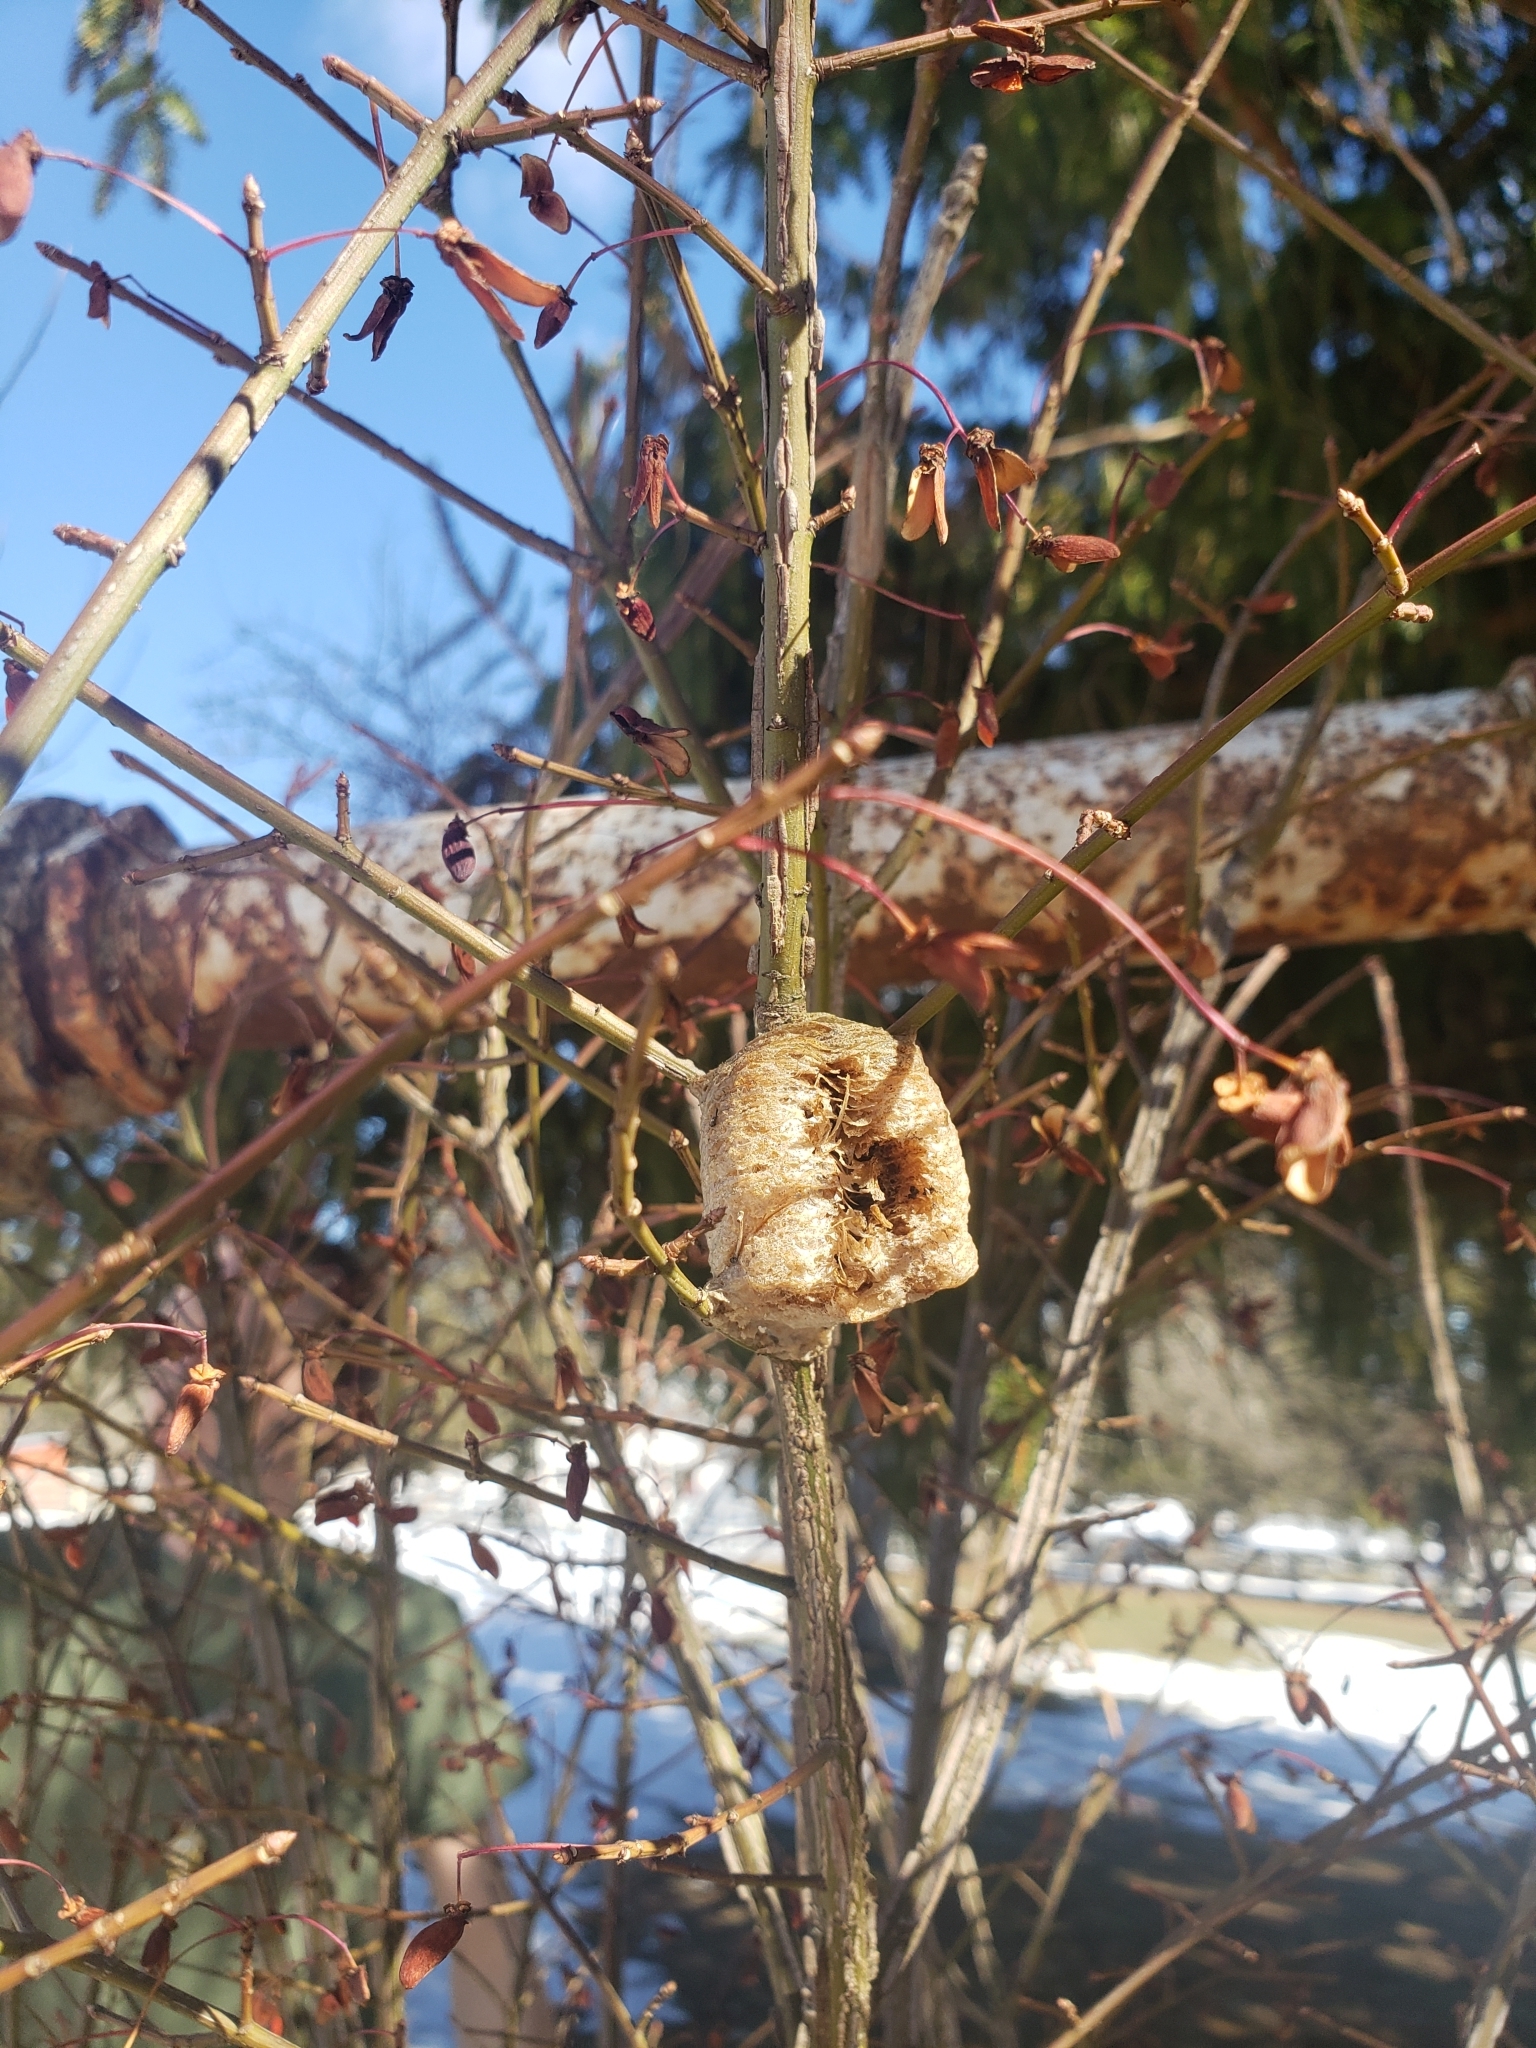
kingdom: Animalia
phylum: Arthropoda
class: Insecta
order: Mantodea
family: Mantidae
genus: Tenodera
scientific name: Tenodera sinensis
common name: Chinese mantis
